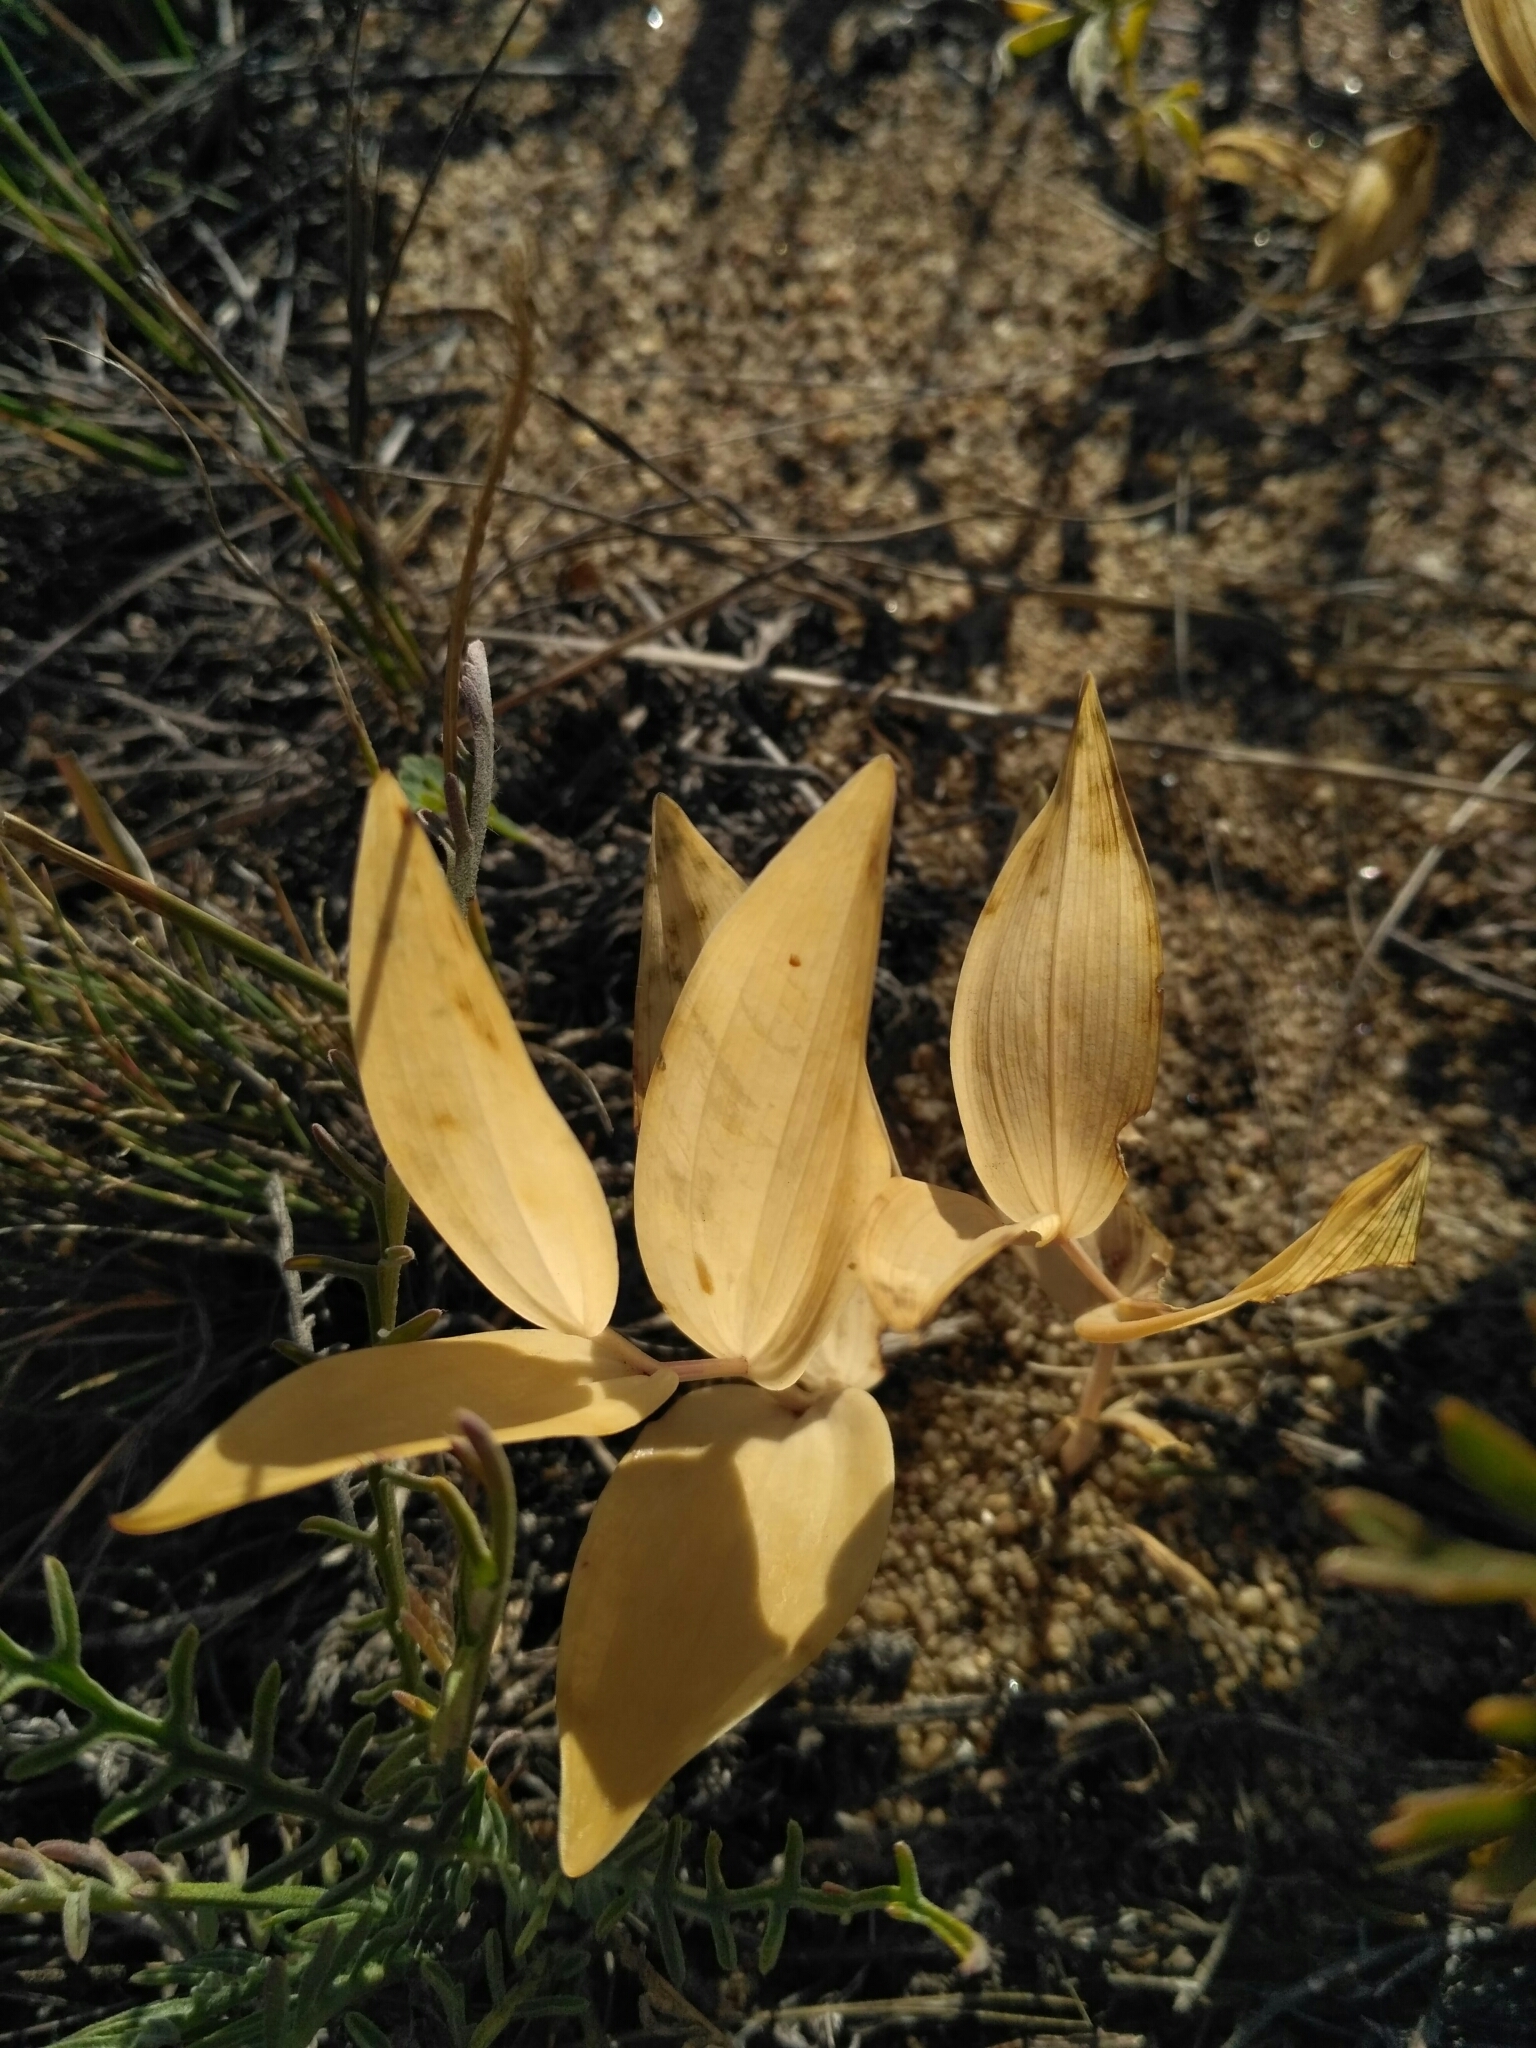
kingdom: Plantae
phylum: Tracheophyta
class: Liliopsida
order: Asparagales
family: Asparagaceae
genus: Polygonatum
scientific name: Polygonatum odoratum
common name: Angular solomon's-seal
